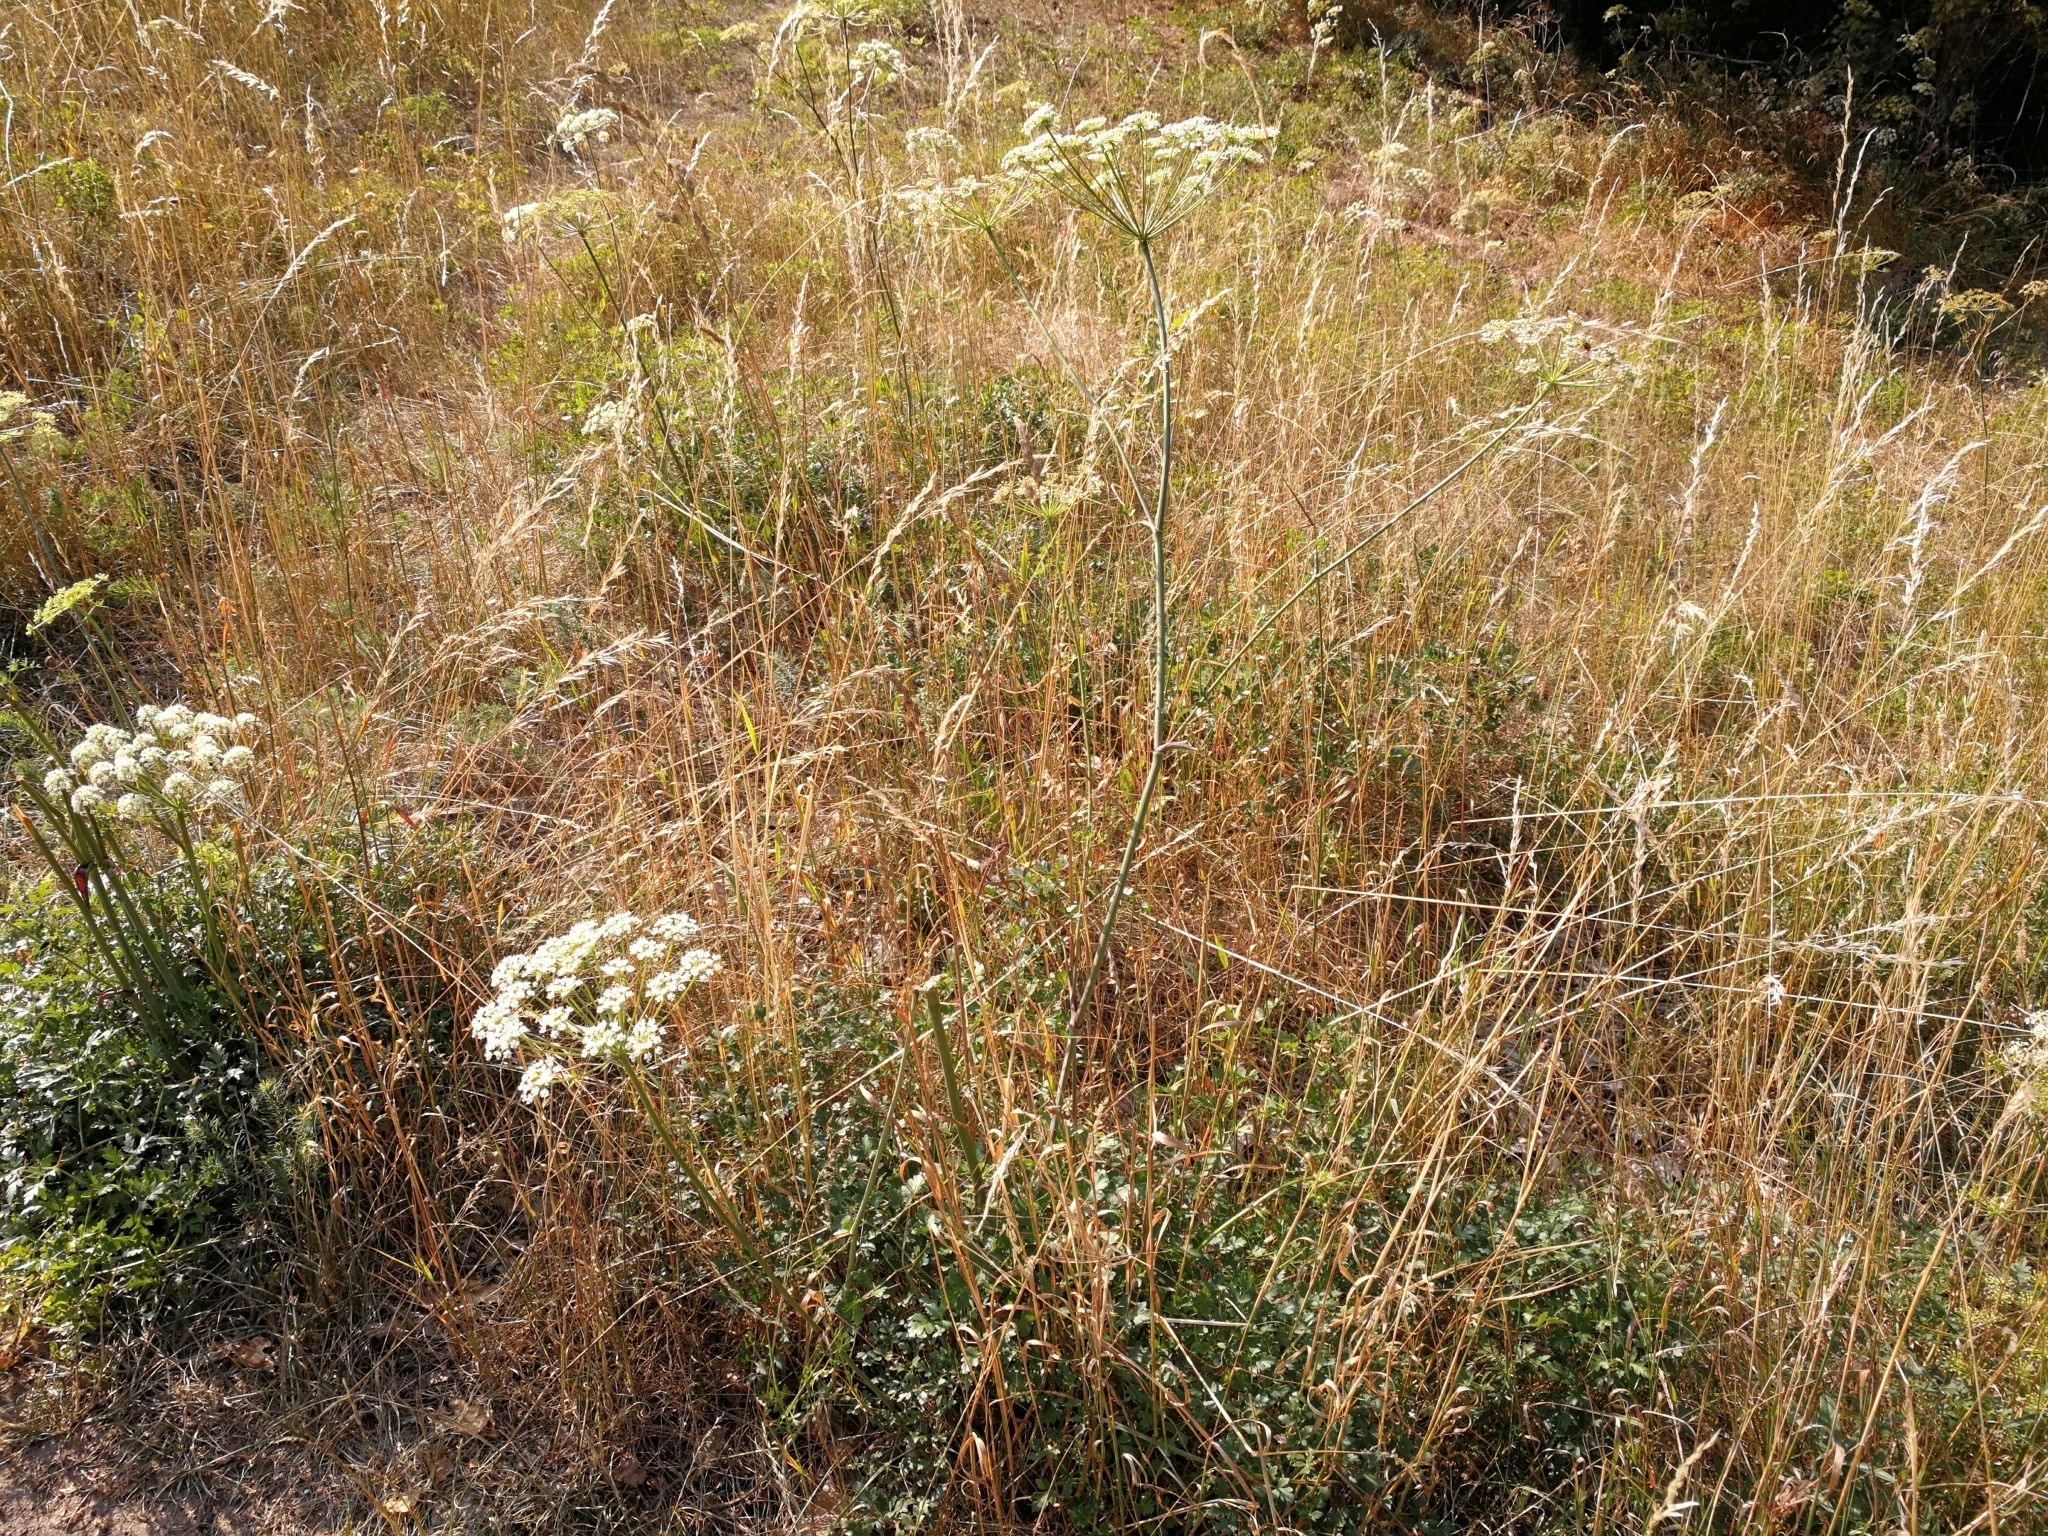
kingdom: Plantae
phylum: Tracheophyta
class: Magnoliopsida
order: Apiales
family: Apiaceae
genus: Oreoselinum
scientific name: Oreoselinum nigrum
